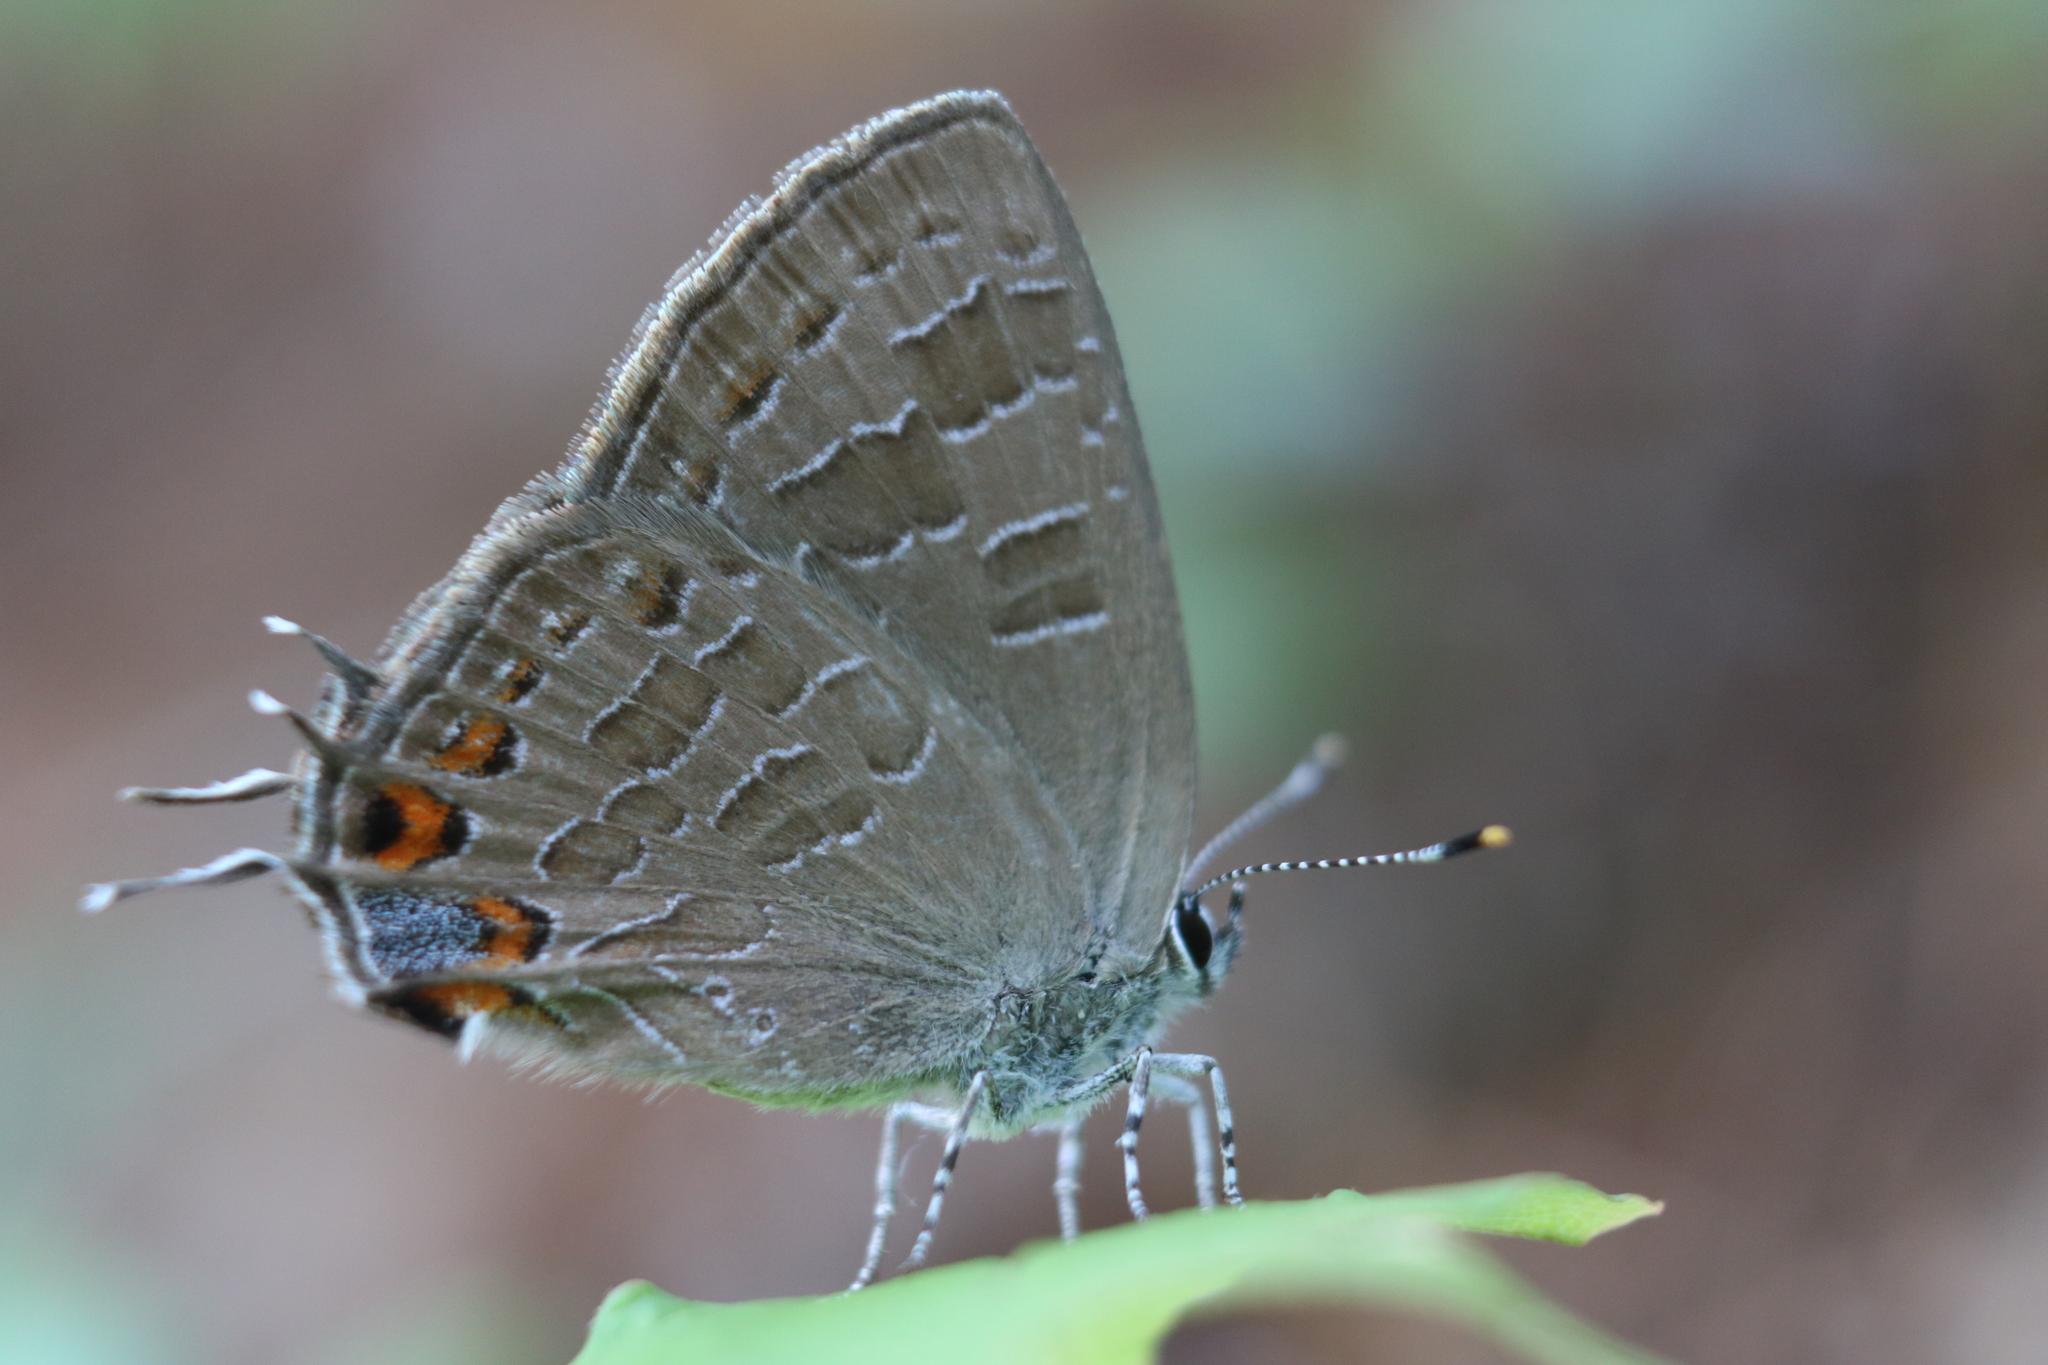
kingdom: Animalia
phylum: Arthropoda
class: Insecta
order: Lepidoptera
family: Lycaenidae
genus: Satyrium
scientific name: Satyrium liparops
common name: Striped hairstreak
